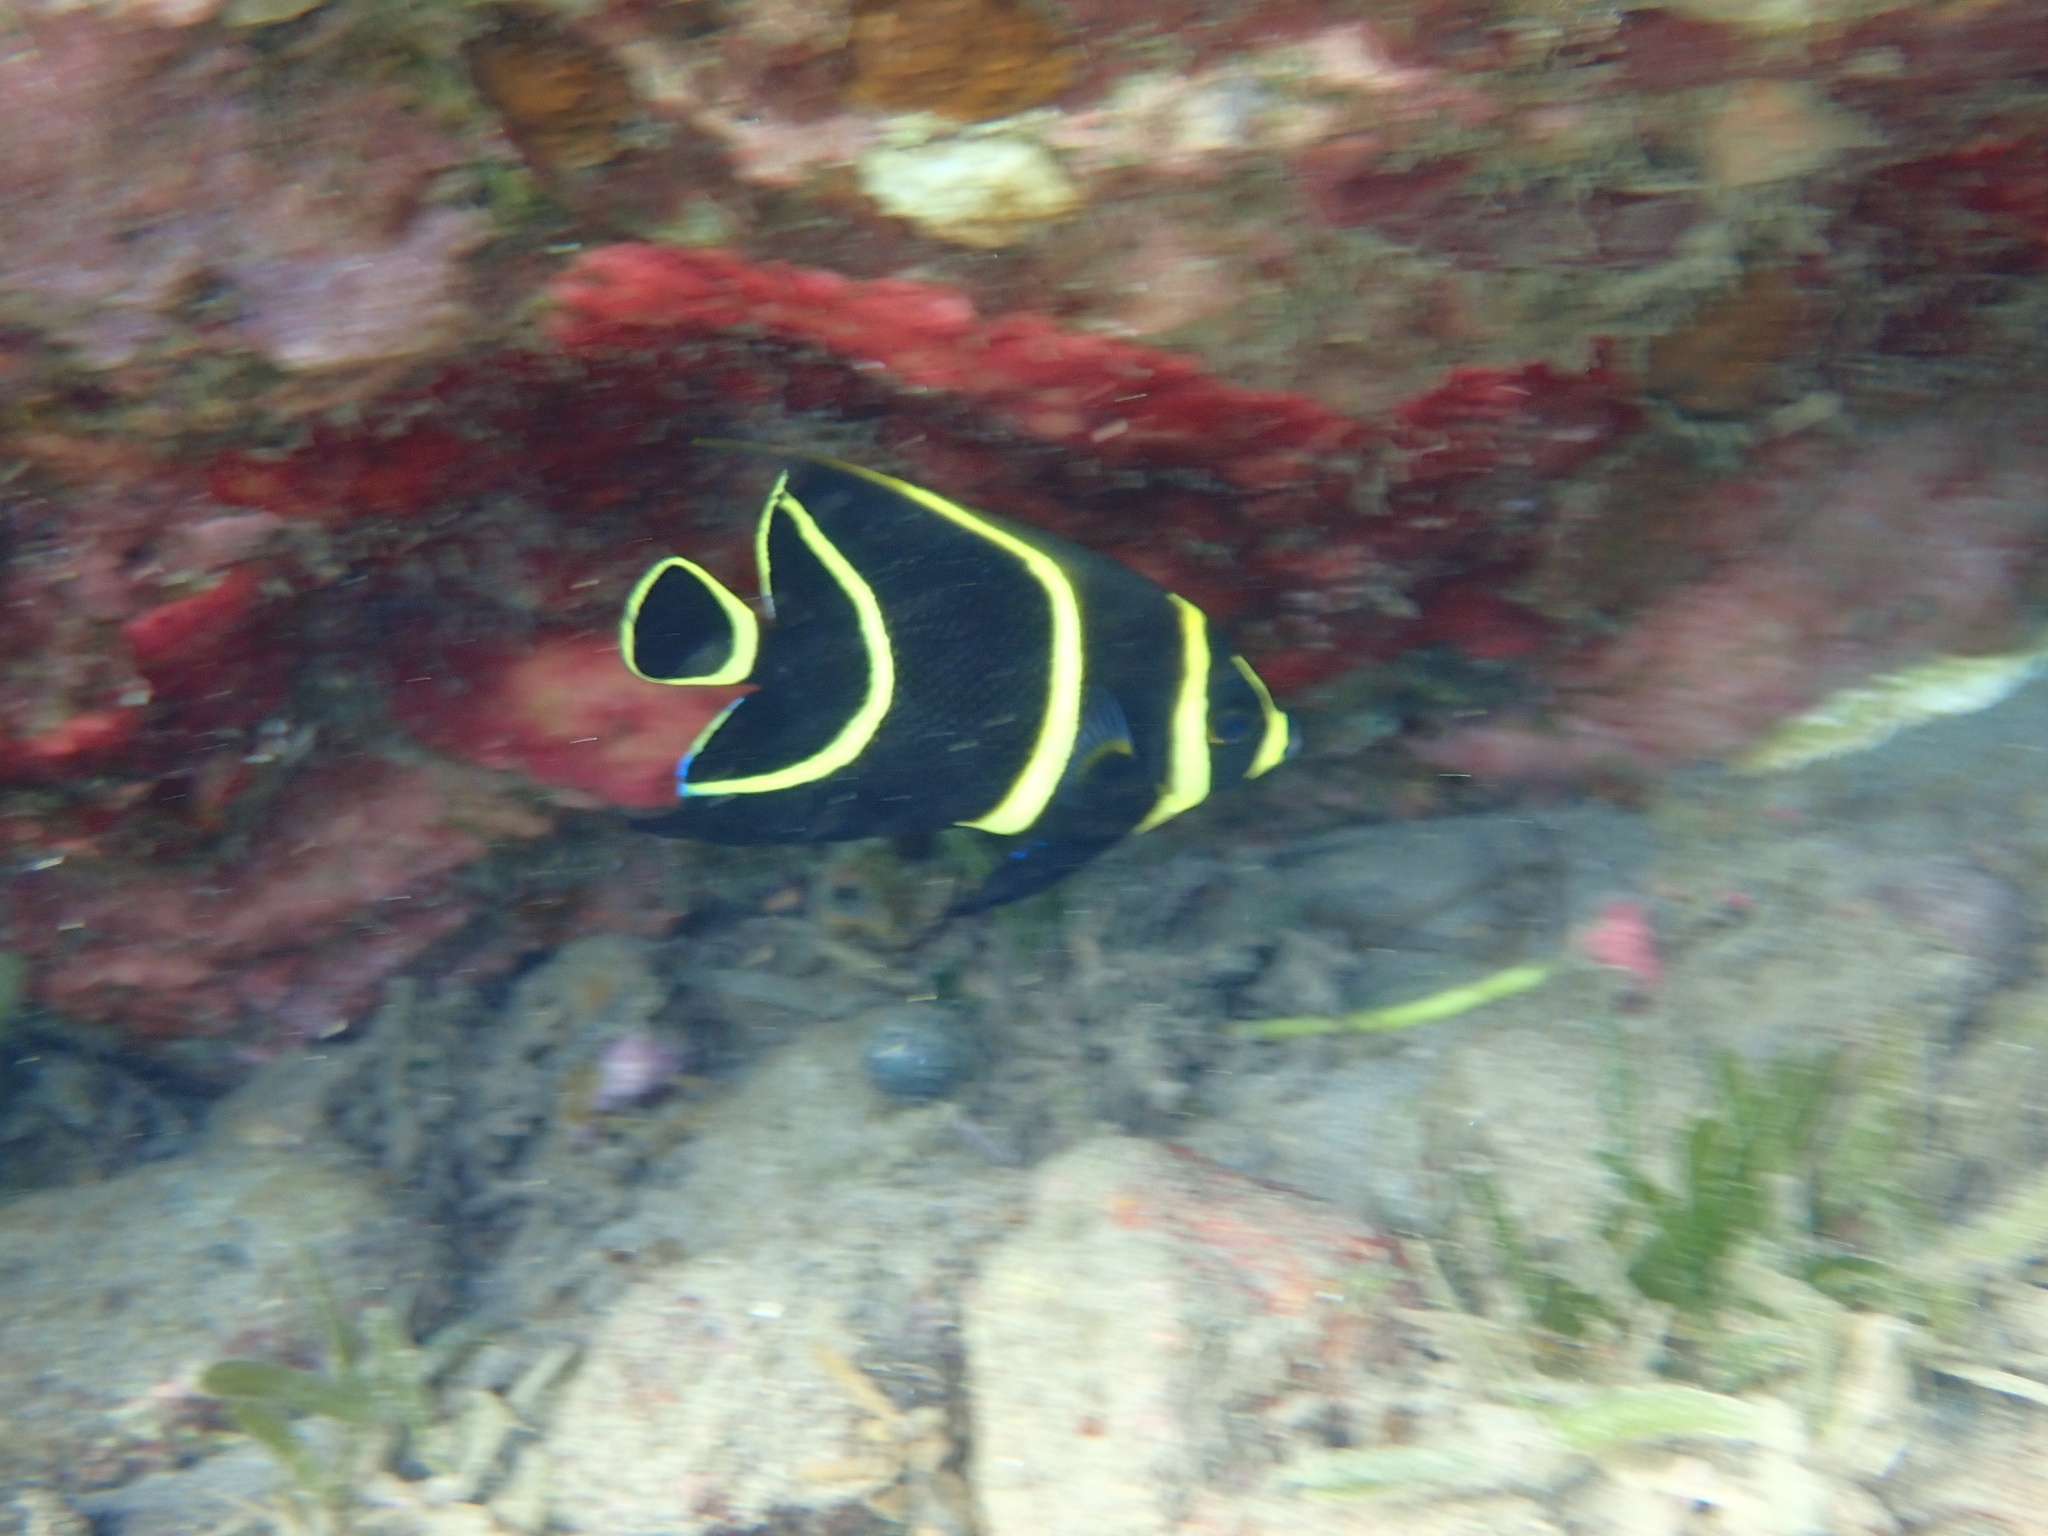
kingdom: Animalia
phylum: Chordata
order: Perciformes
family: Pomacanthidae
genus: Pomacanthus
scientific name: Pomacanthus paru
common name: French angelfish
